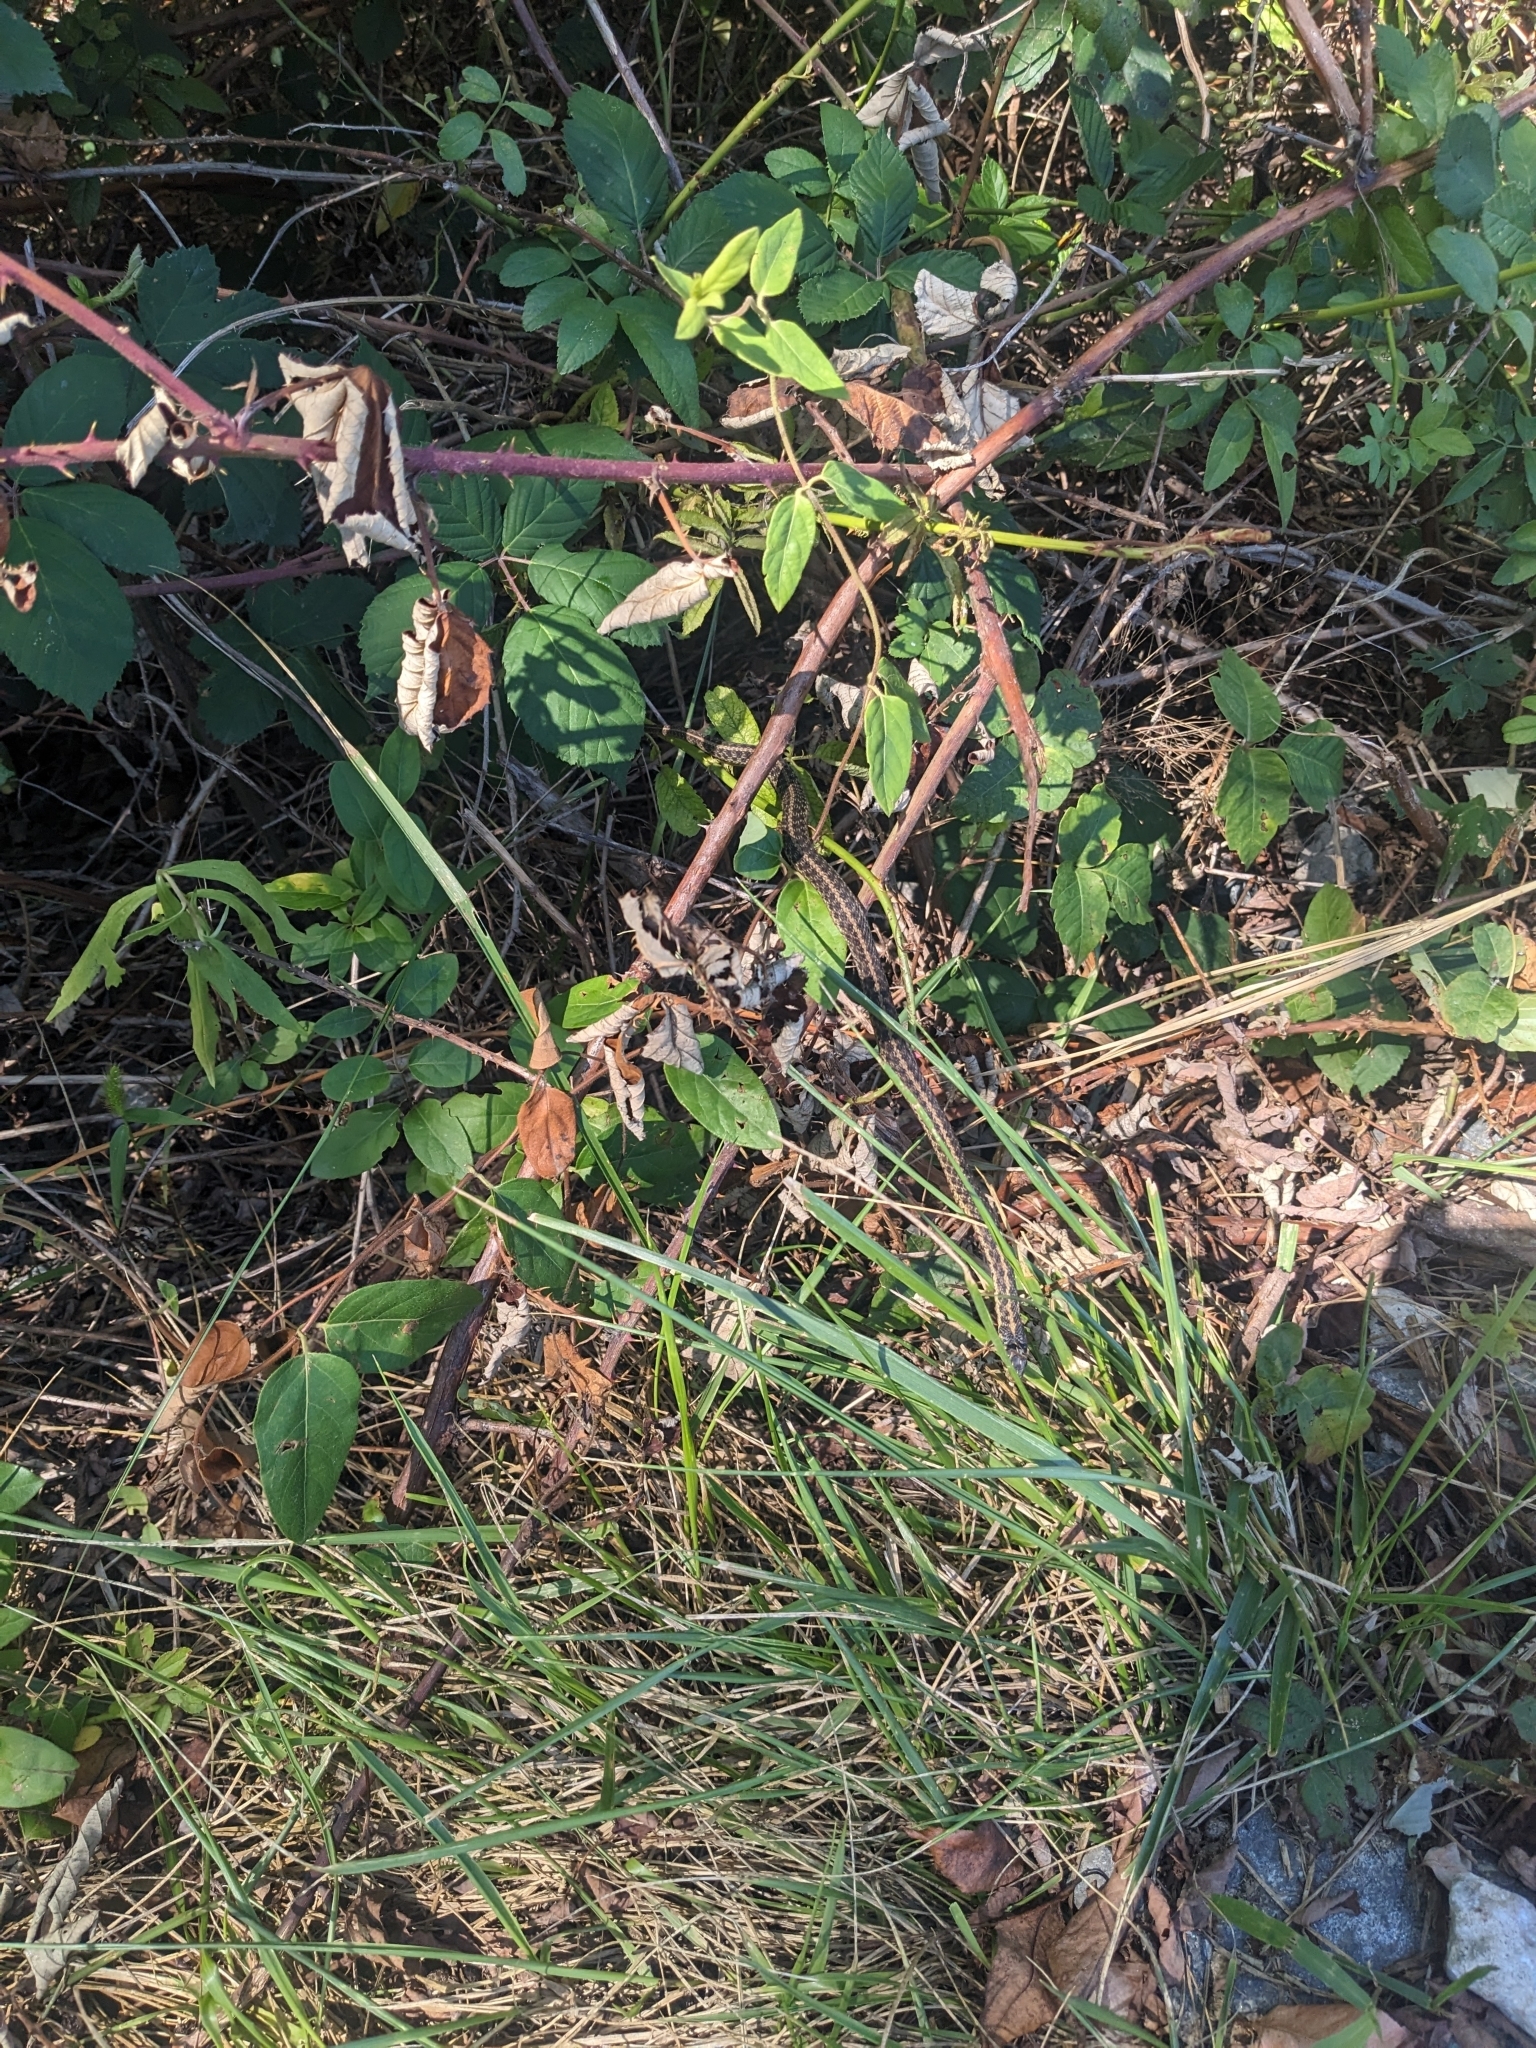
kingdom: Animalia
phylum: Chordata
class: Squamata
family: Colubridae
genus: Thamnophis
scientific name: Thamnophis sirtalis
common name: Common garter snake
